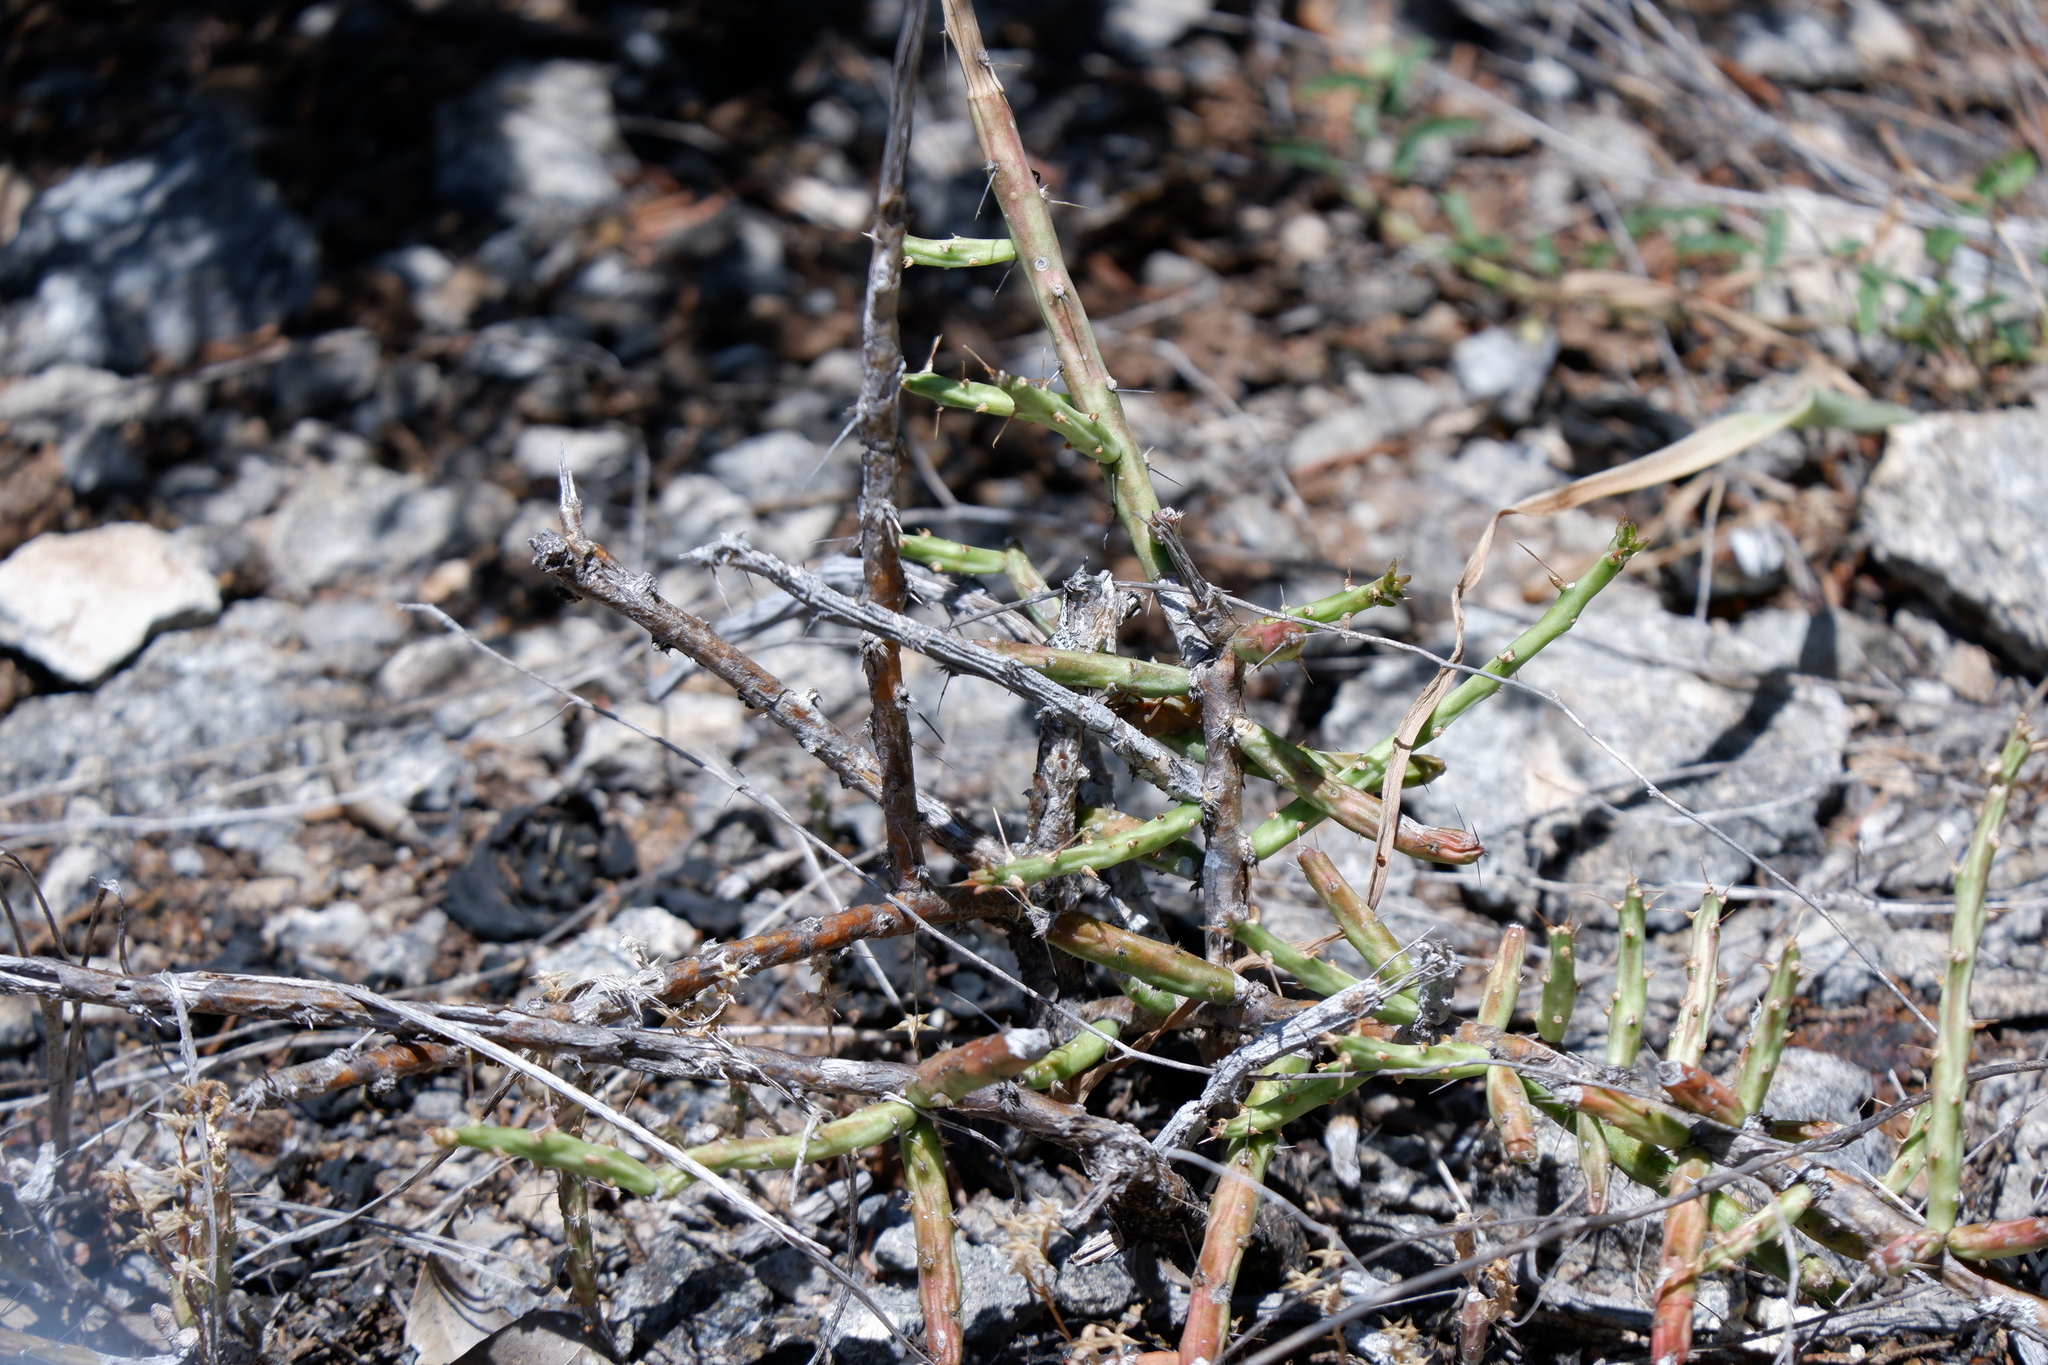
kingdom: Plantae
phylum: Tracheophyta
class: Magnoliopsida
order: Caryophyllales
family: Cactaceae
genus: Cylindropuntia
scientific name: Cylindropuntia leptocaulis
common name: Christmas cactus
